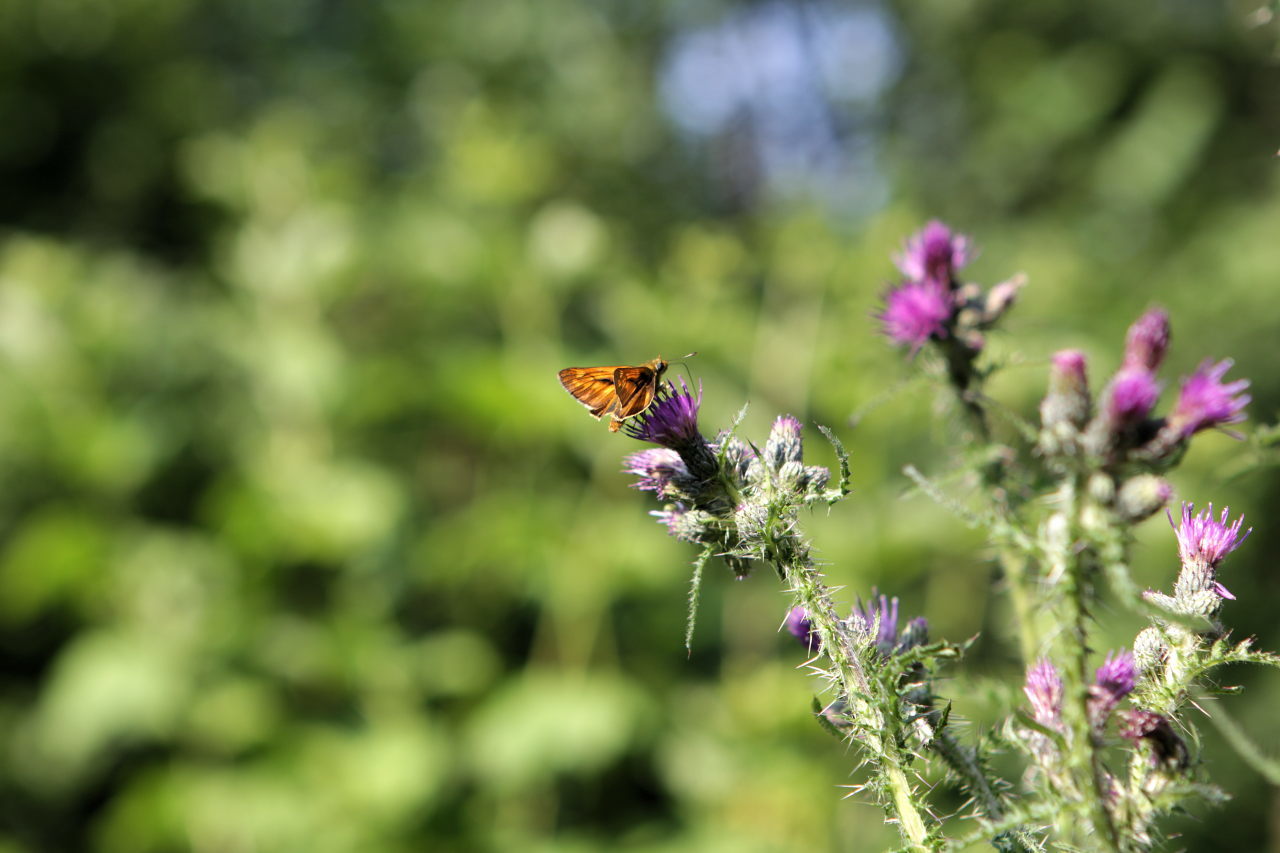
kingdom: Animalia
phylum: Arthropoda
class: Insecta
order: Lepidoptera
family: Hesperiidae
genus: Ochlodes
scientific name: Ochlodes venata
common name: Large skipper
